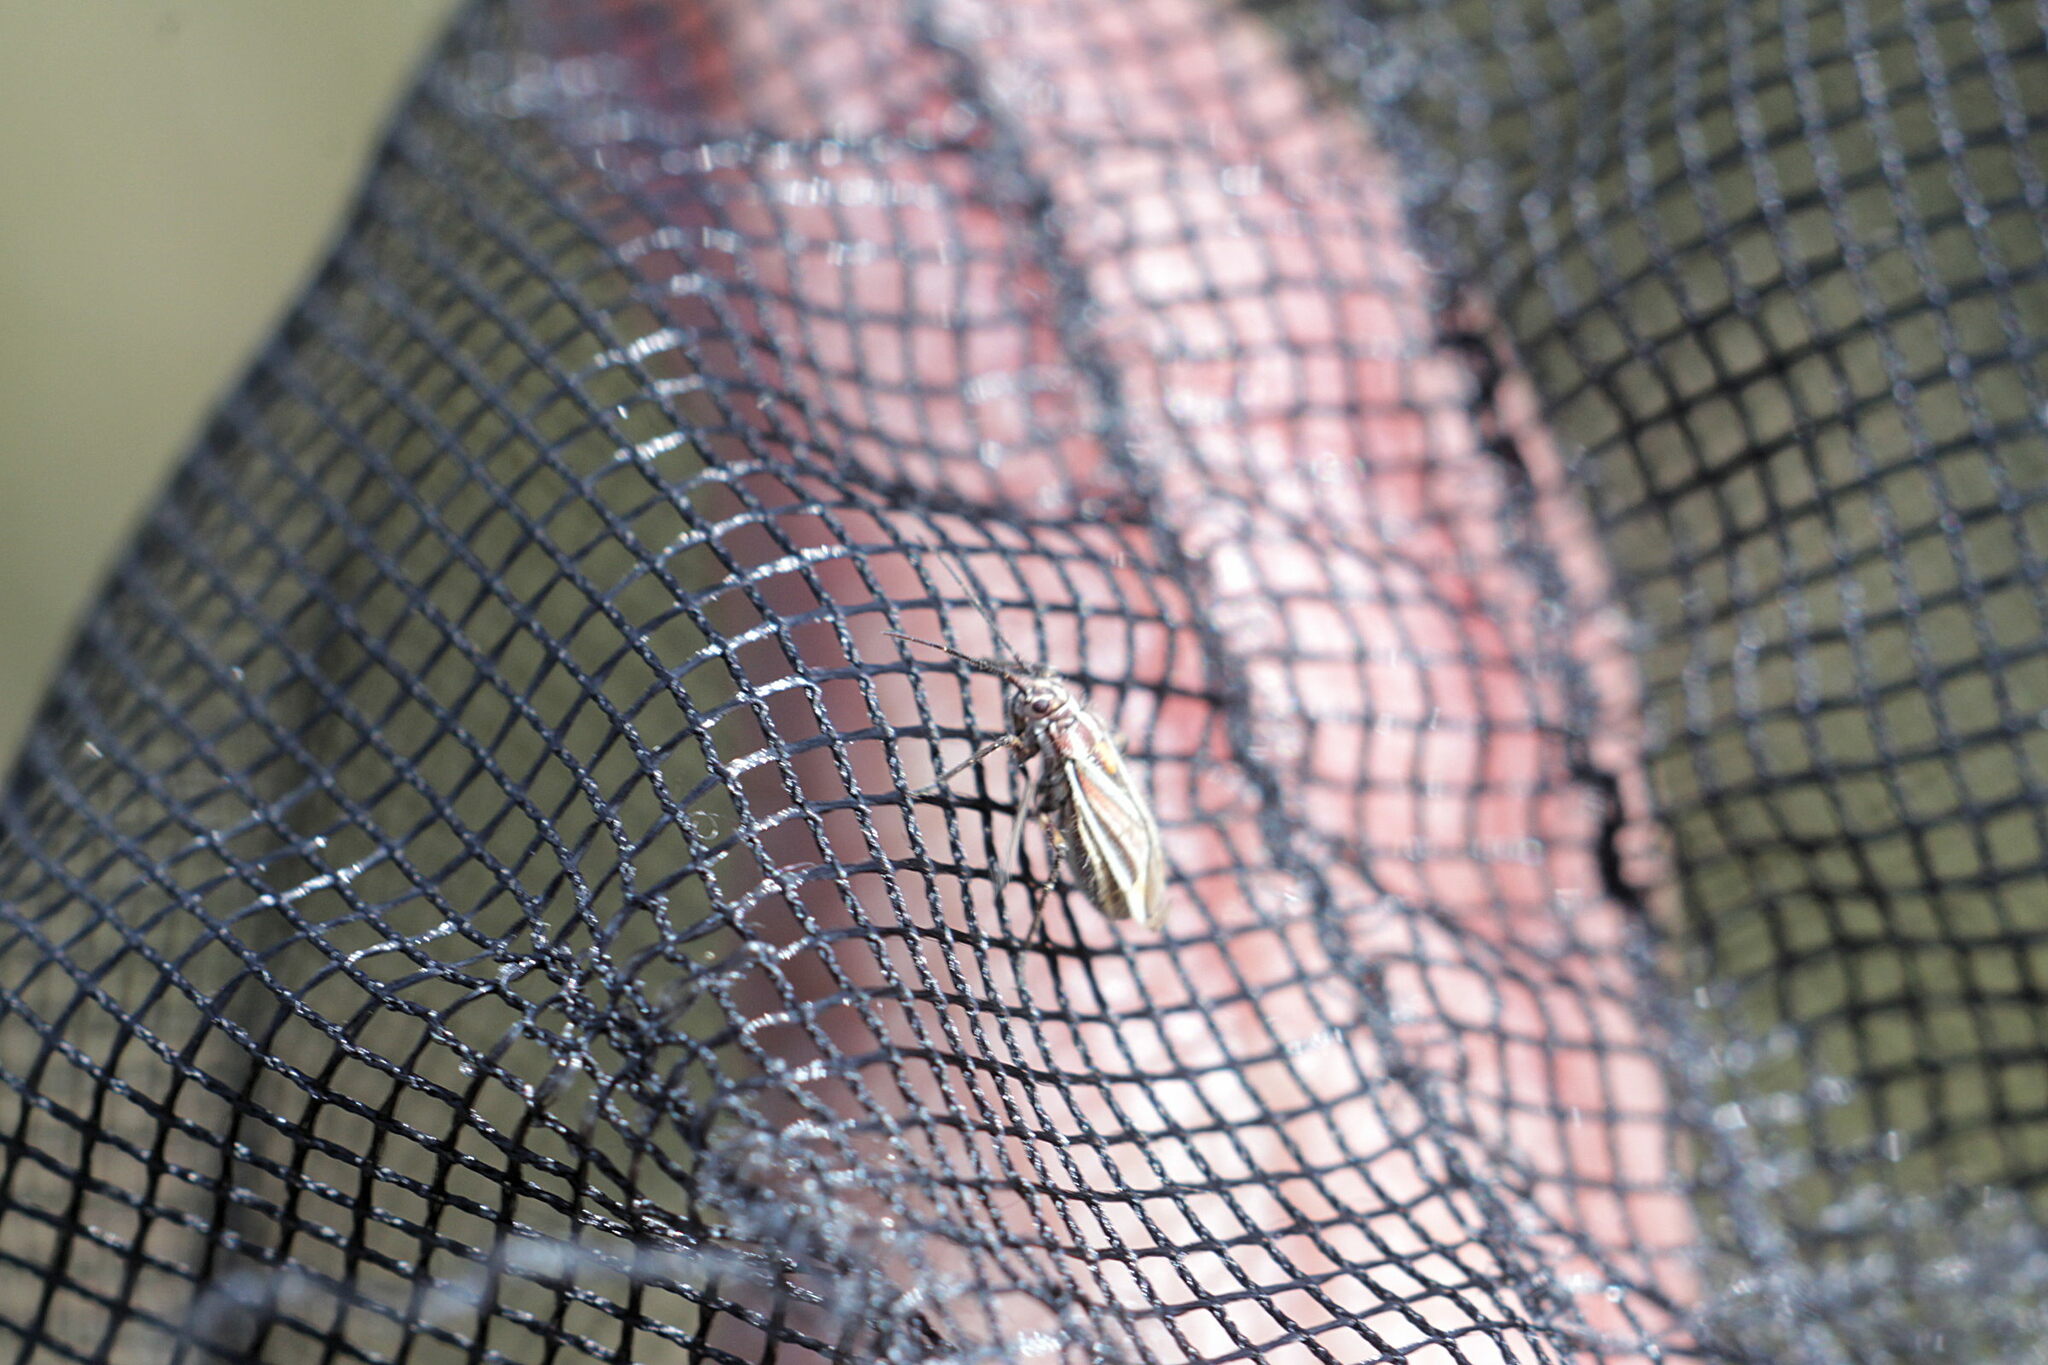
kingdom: Animalia
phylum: Arthropoda
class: Insecta
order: Hemiptera
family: Miridae
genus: Horistus
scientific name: Horistus orientalis
